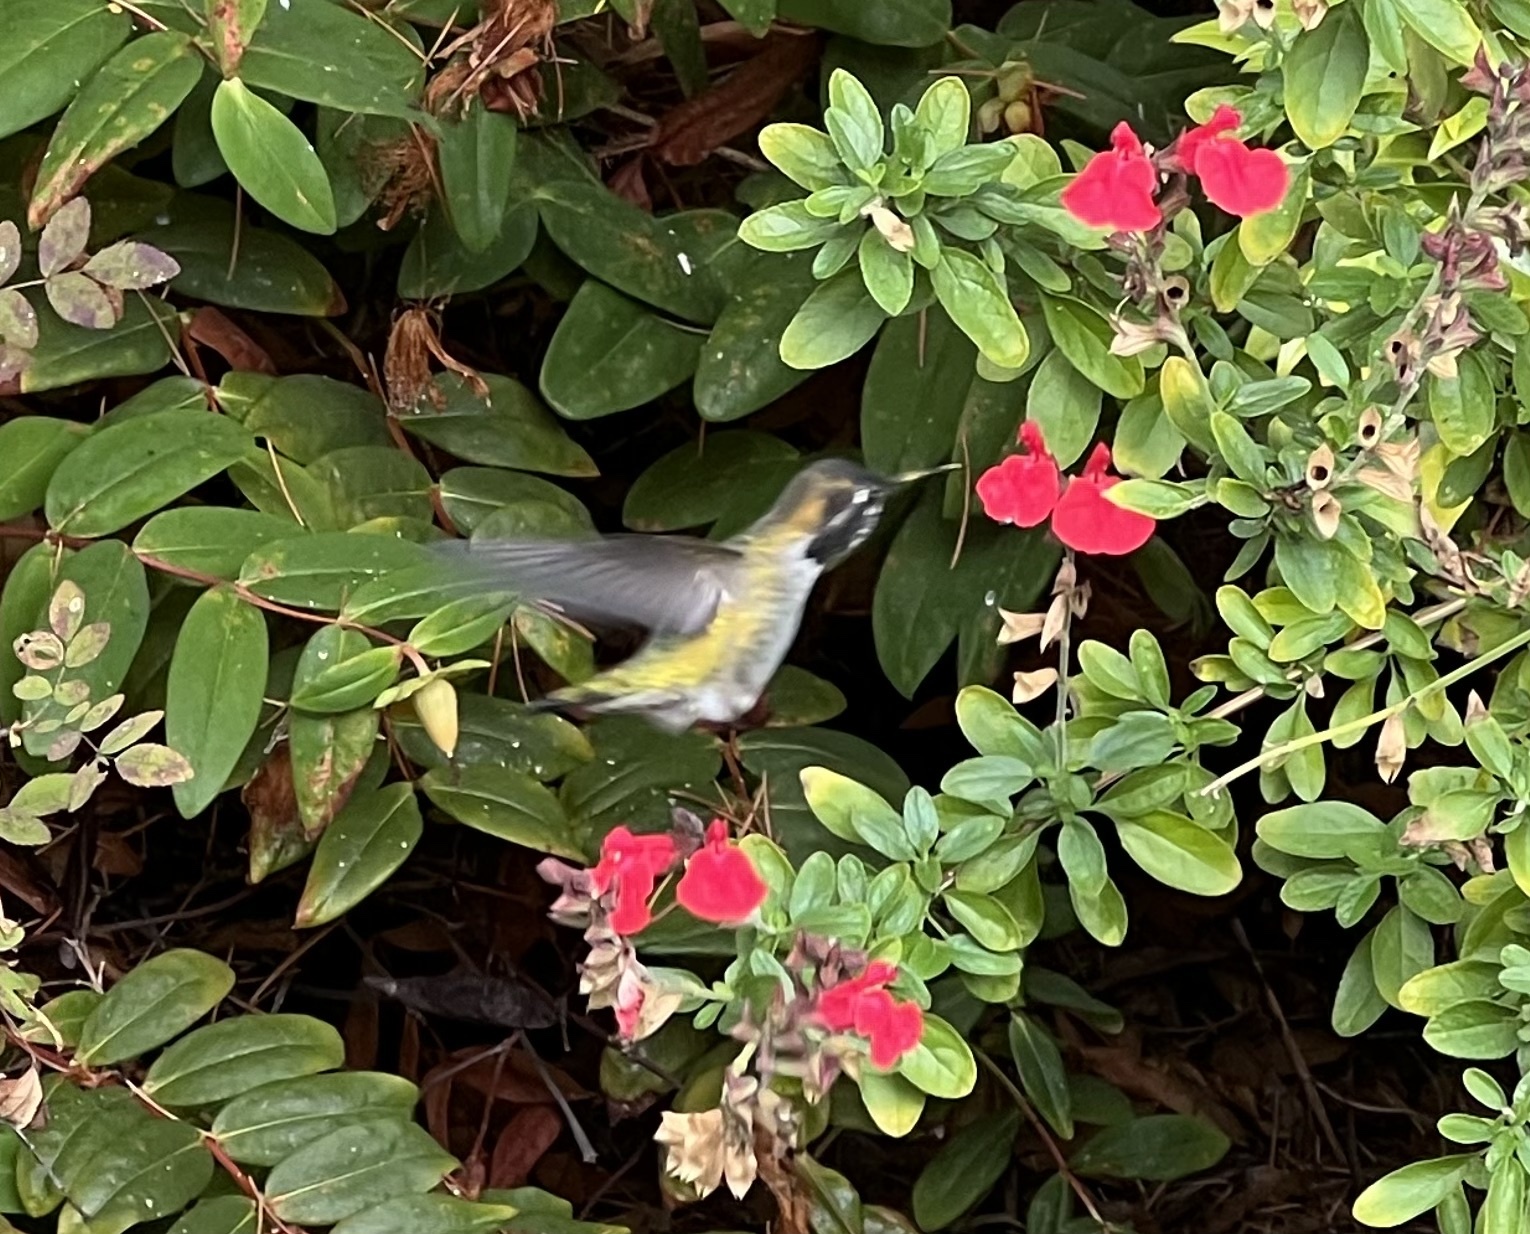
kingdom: Animalia
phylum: Chordata
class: Aves
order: Apodiformes
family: Trochilidae
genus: Calypte
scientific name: Calypte anna
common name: Anna's hummingbird
